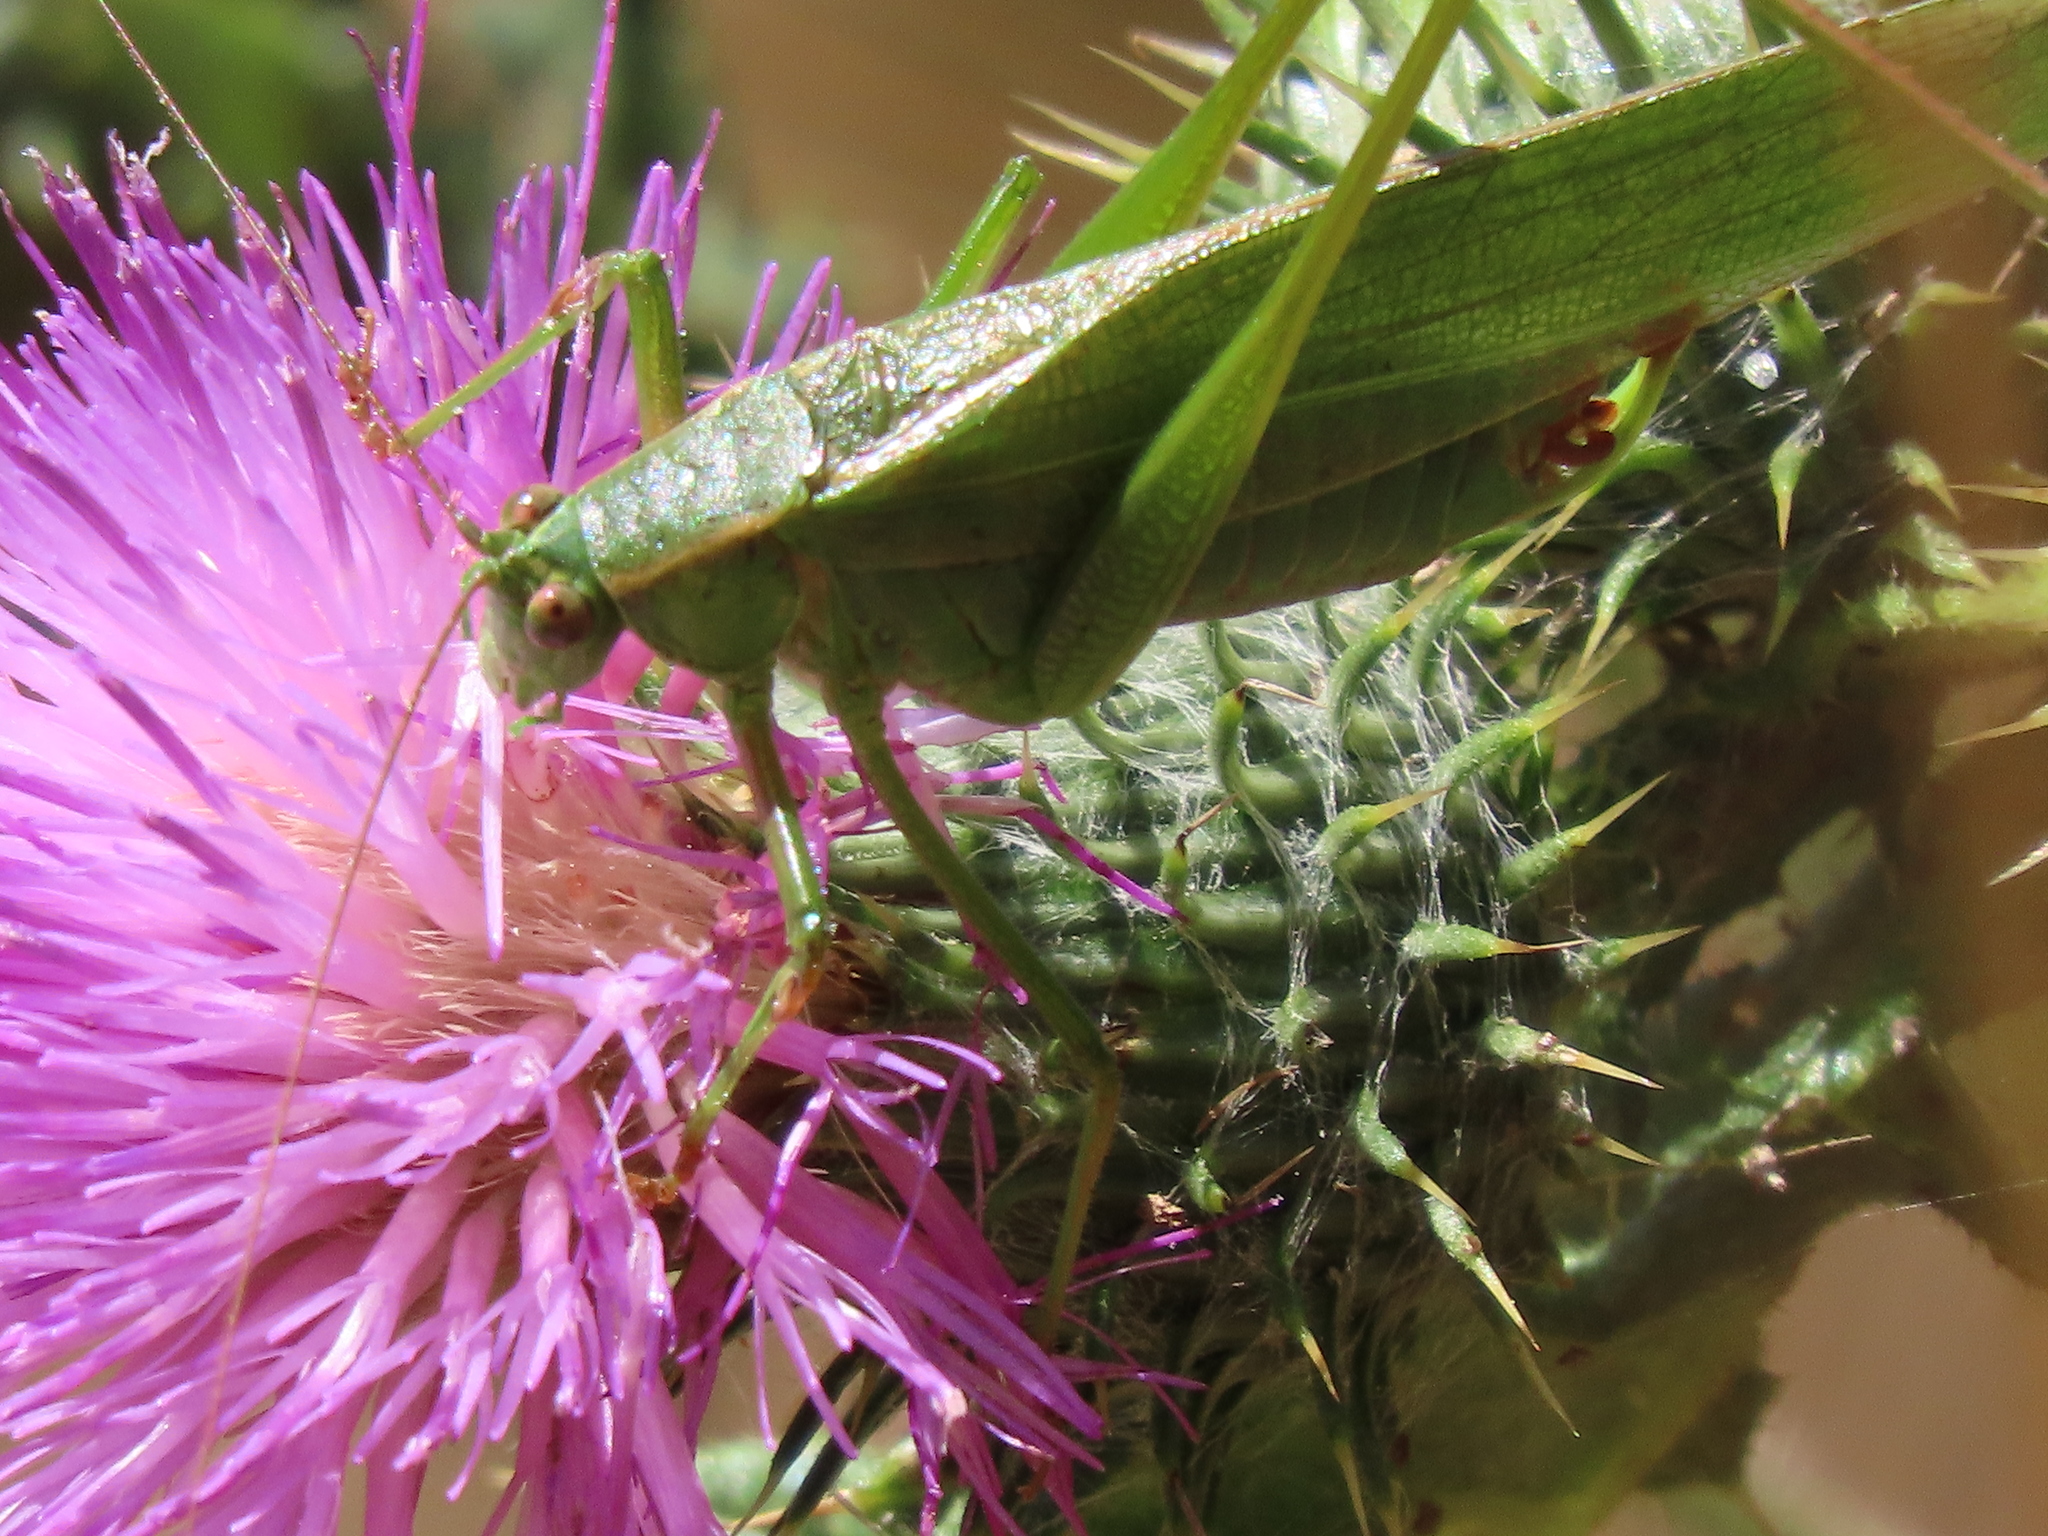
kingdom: Animalia
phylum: Arthropoda
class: Insecta
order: Orthoptera
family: Tettigoniidae
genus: Scudderia
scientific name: Scudderia furcata
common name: Fork-tailed bush katydid
